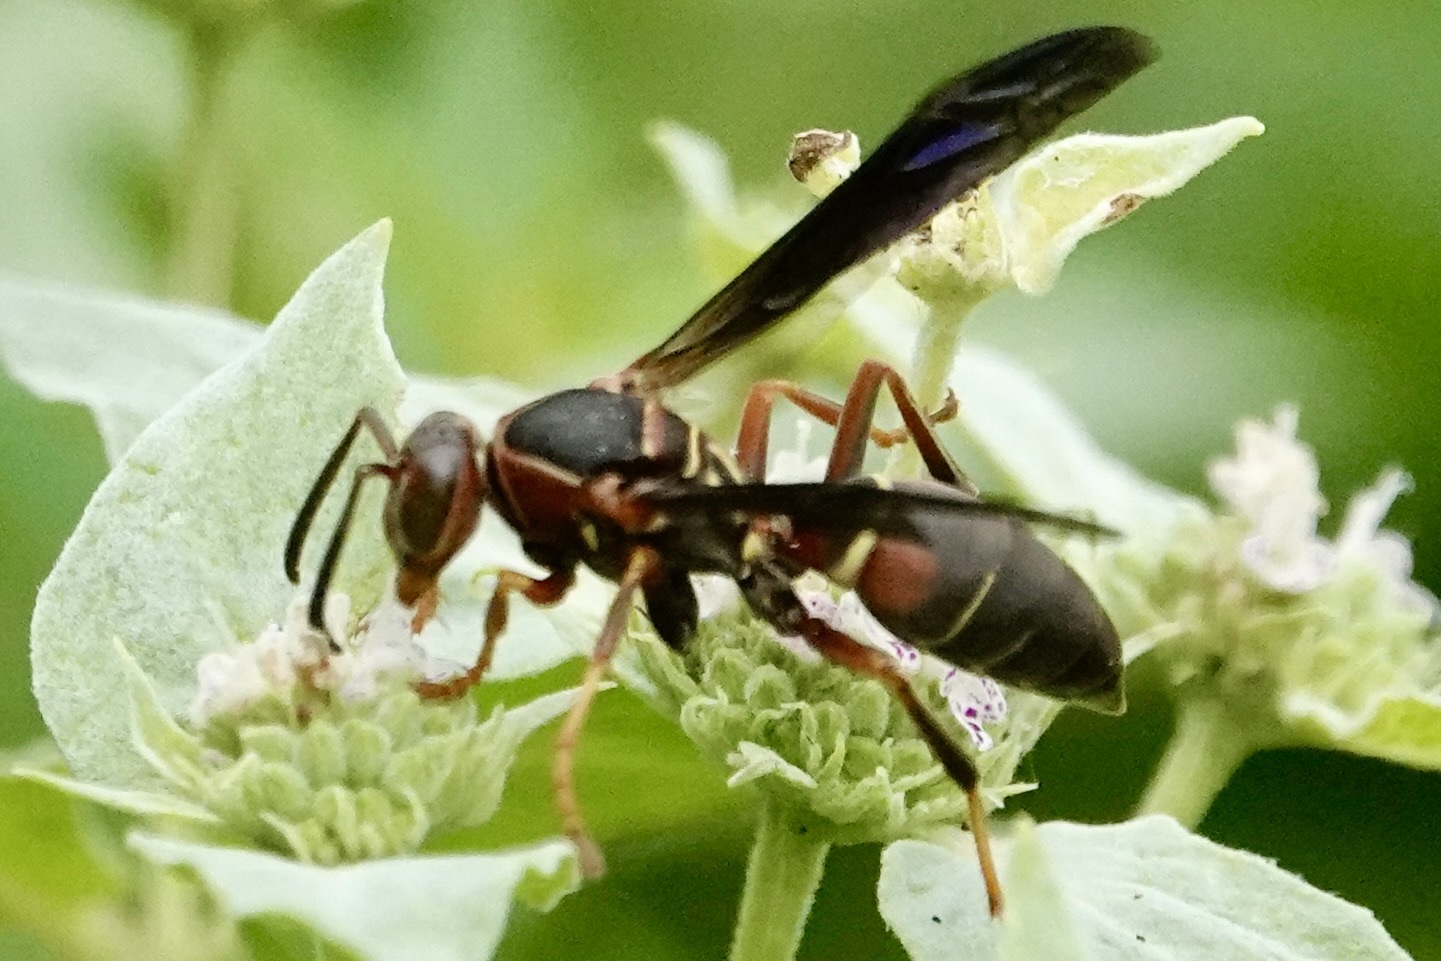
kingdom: Animalia
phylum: Arthropoda
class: Insecta
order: Hymenoptera
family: Eumenidae
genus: Polistes
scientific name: Polistes fuscatus
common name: Dark paper wasp
